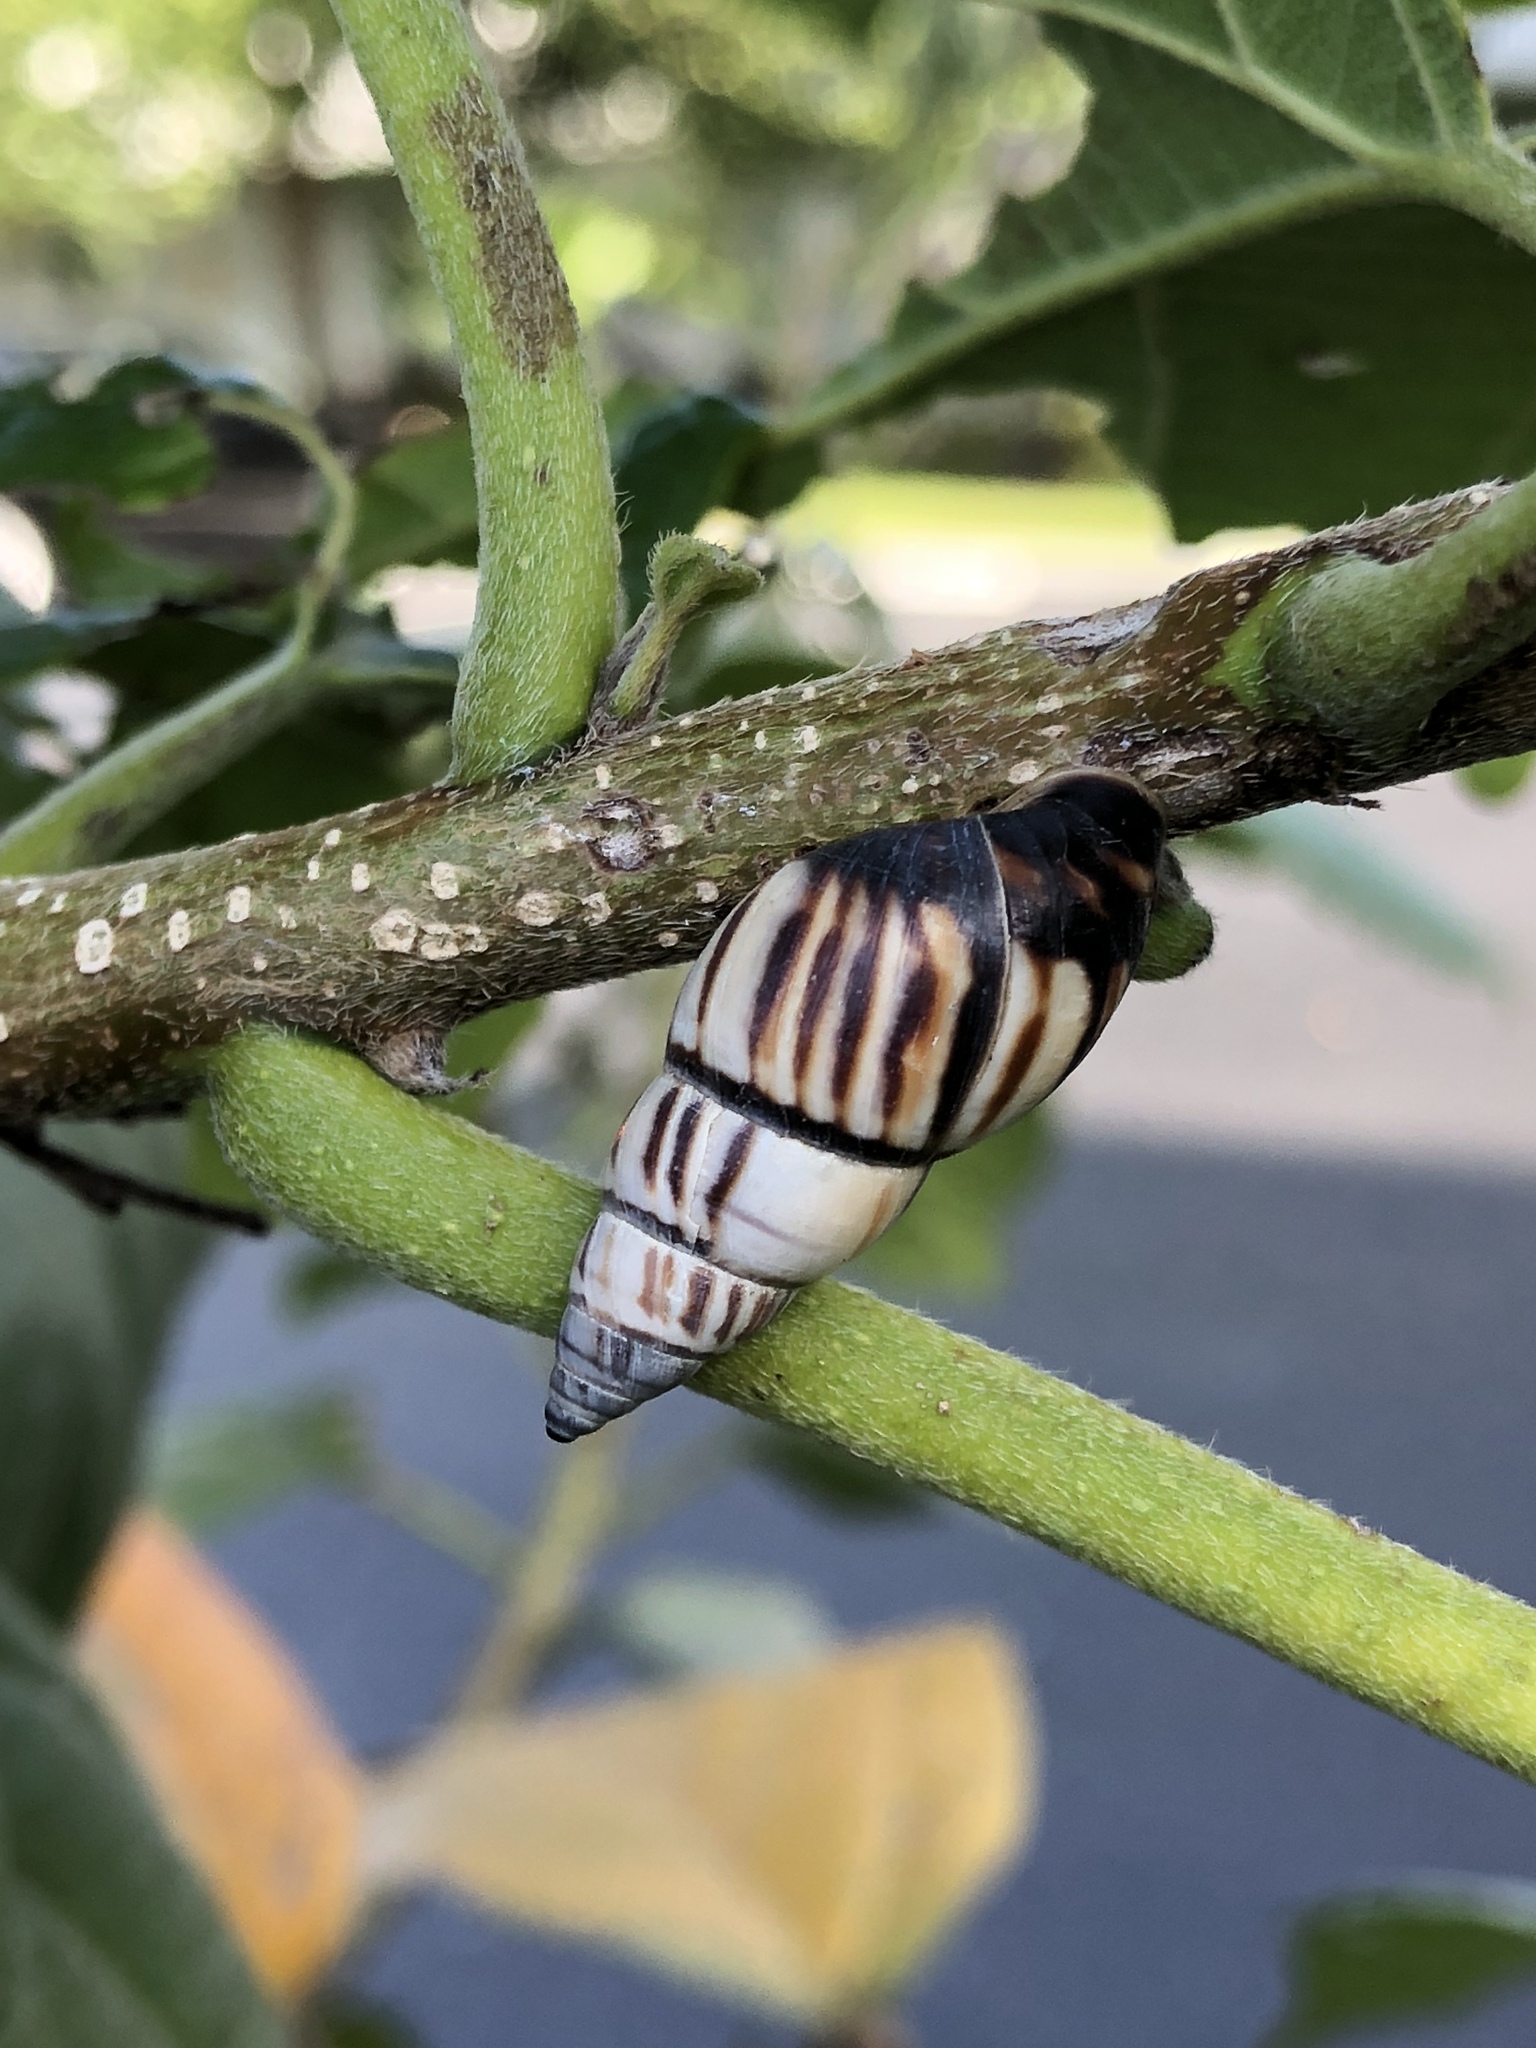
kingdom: Animalia
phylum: Mollusca
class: Gastropoda
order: Stylommatophora
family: Bulimulidae
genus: Drymaeus
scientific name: Drymaeus
